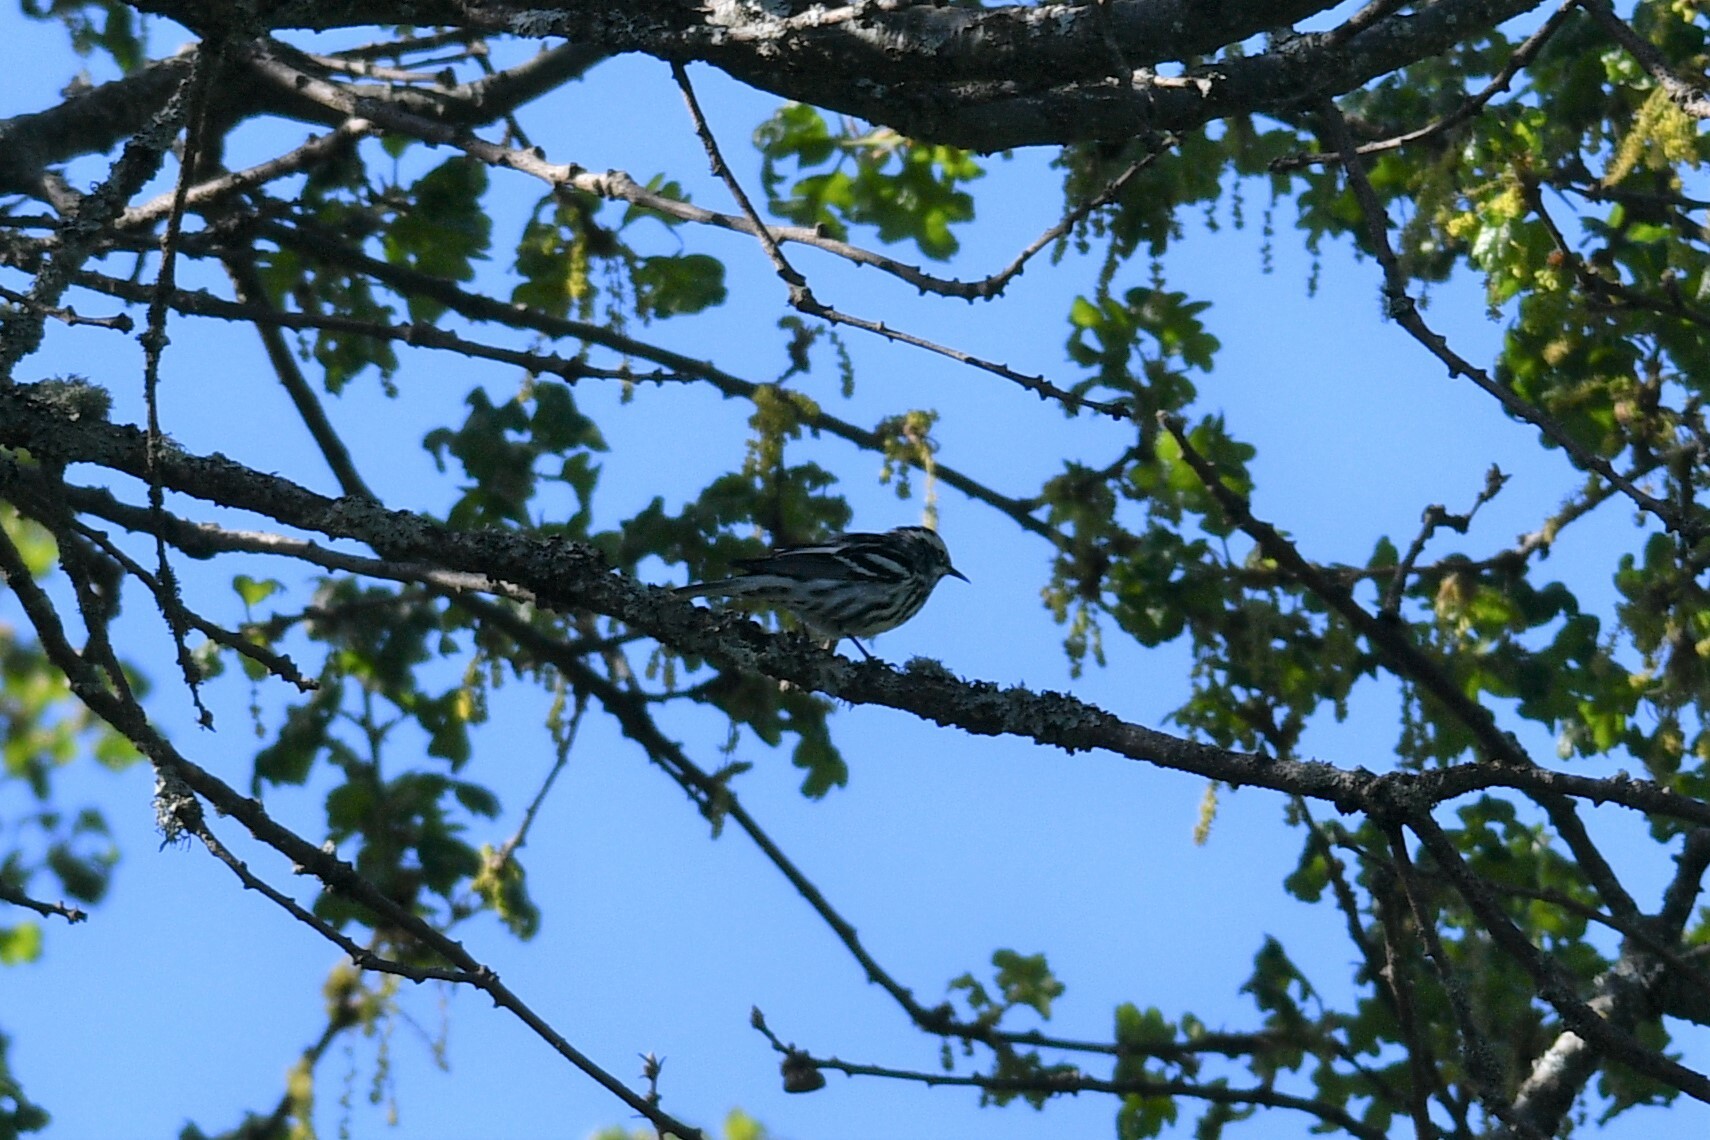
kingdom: Animalia
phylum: Chordata
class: Aves
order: Passeriformes
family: Parulidae
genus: Mniotilta
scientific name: Mniotilta varia
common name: Black-and-white warbler
